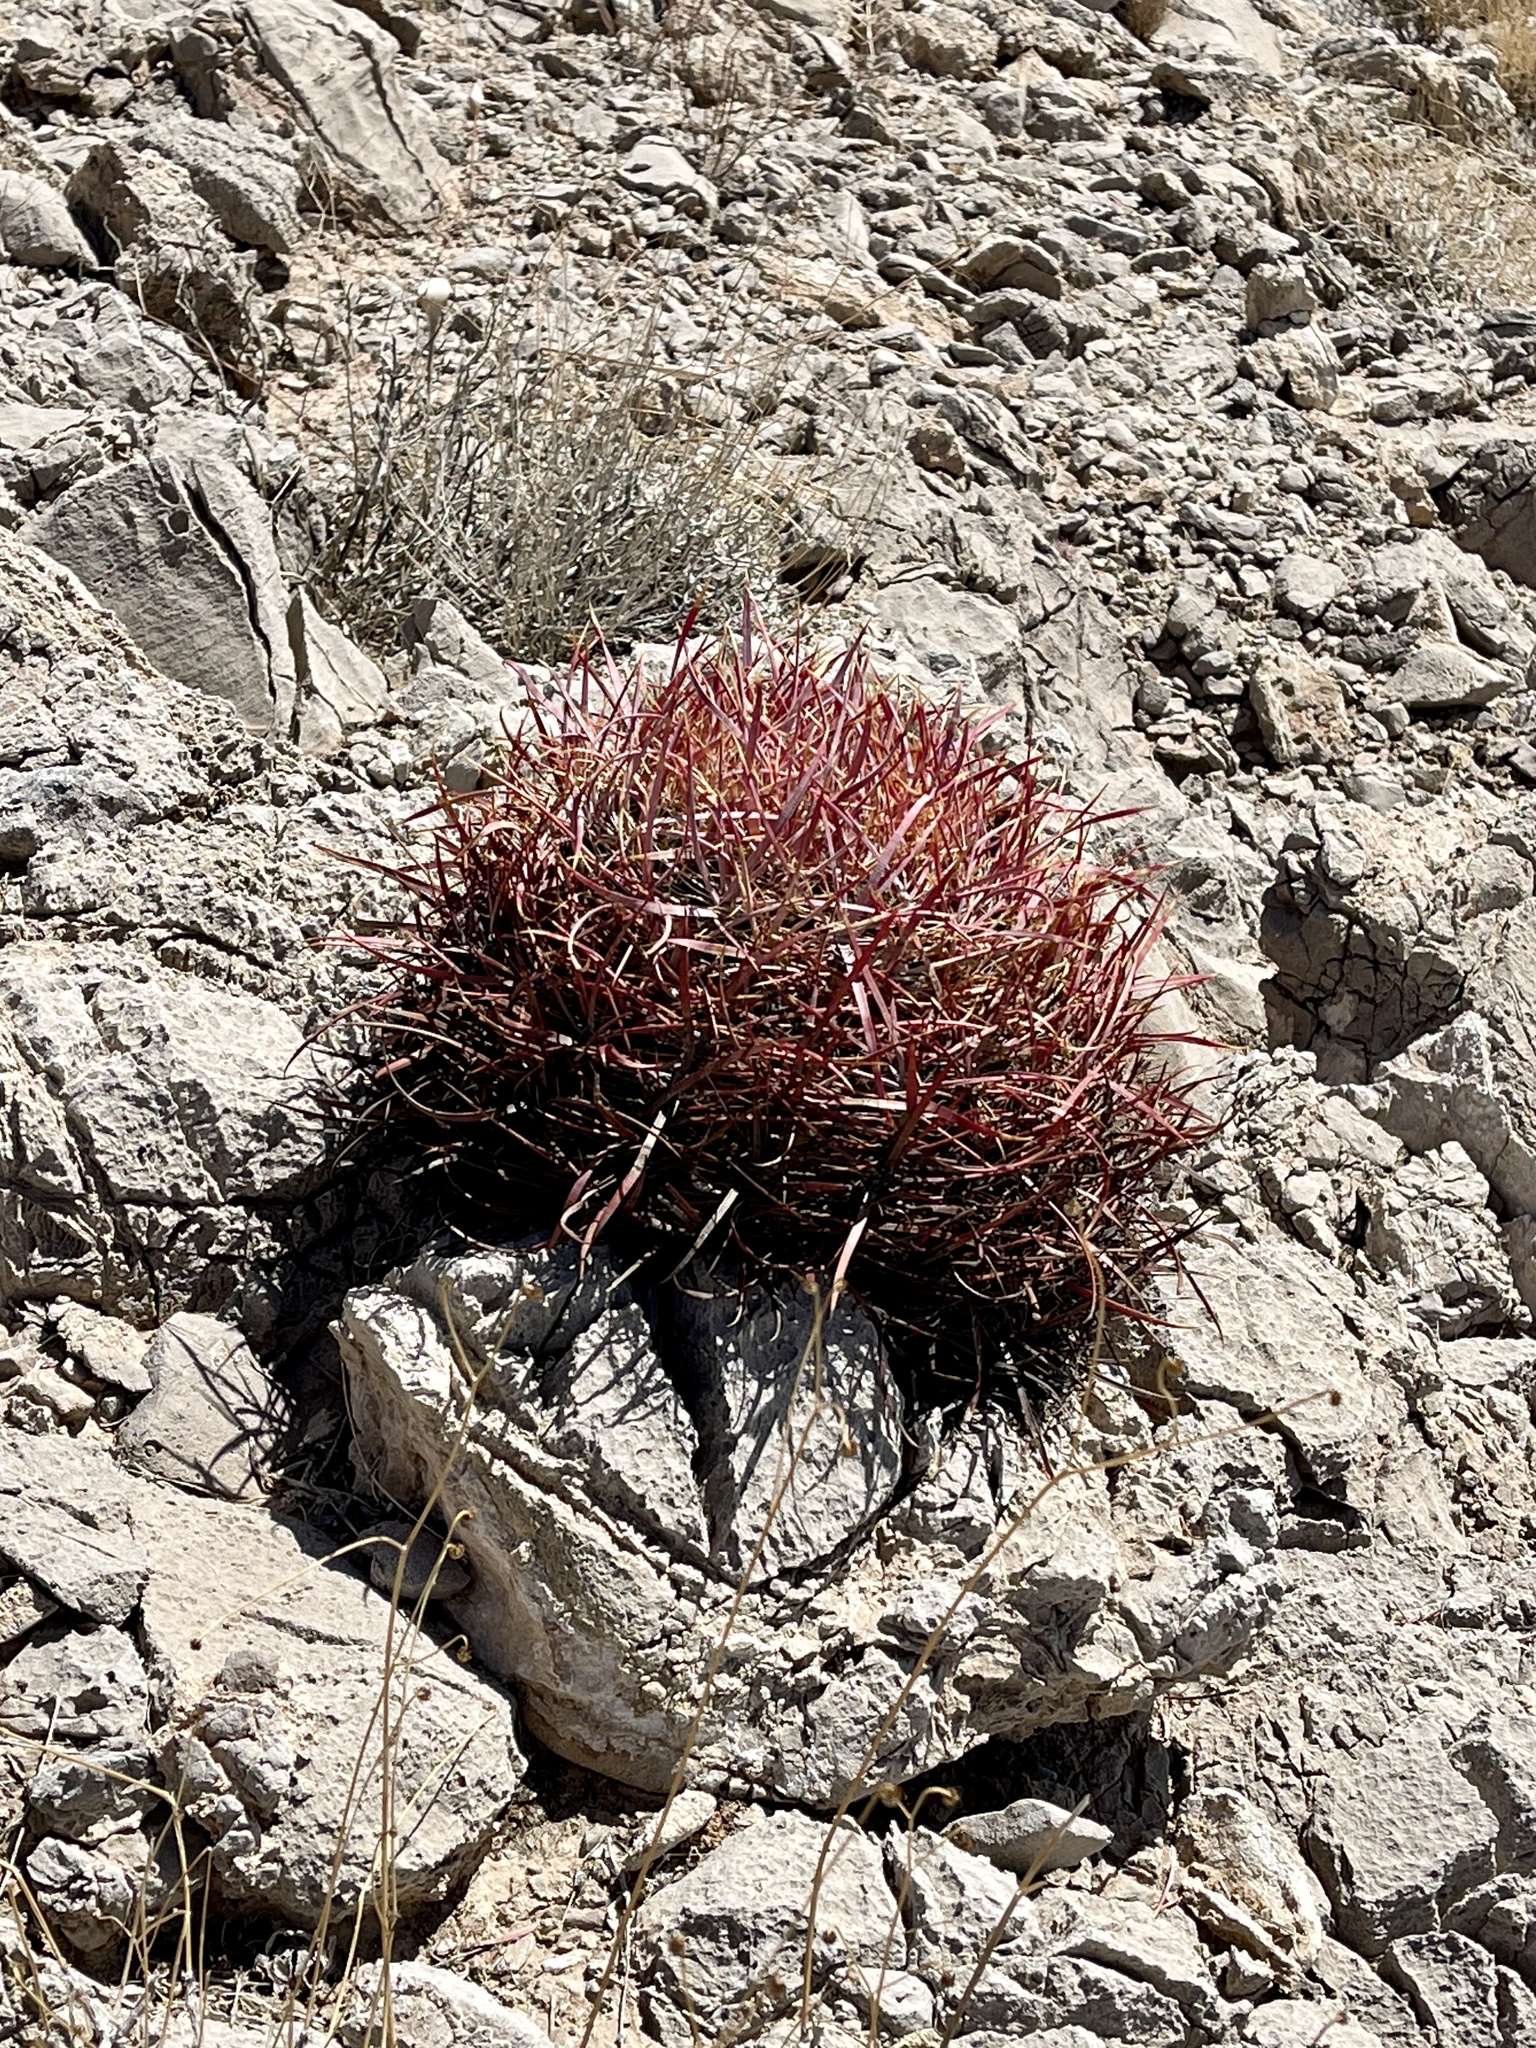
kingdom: Plantae
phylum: Tracheophyta
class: Magnoliopsida
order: Caryophyllales
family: Cactaceae
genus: Ferocactus
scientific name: Ferocactus cylindraceus
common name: California barrel cactus
